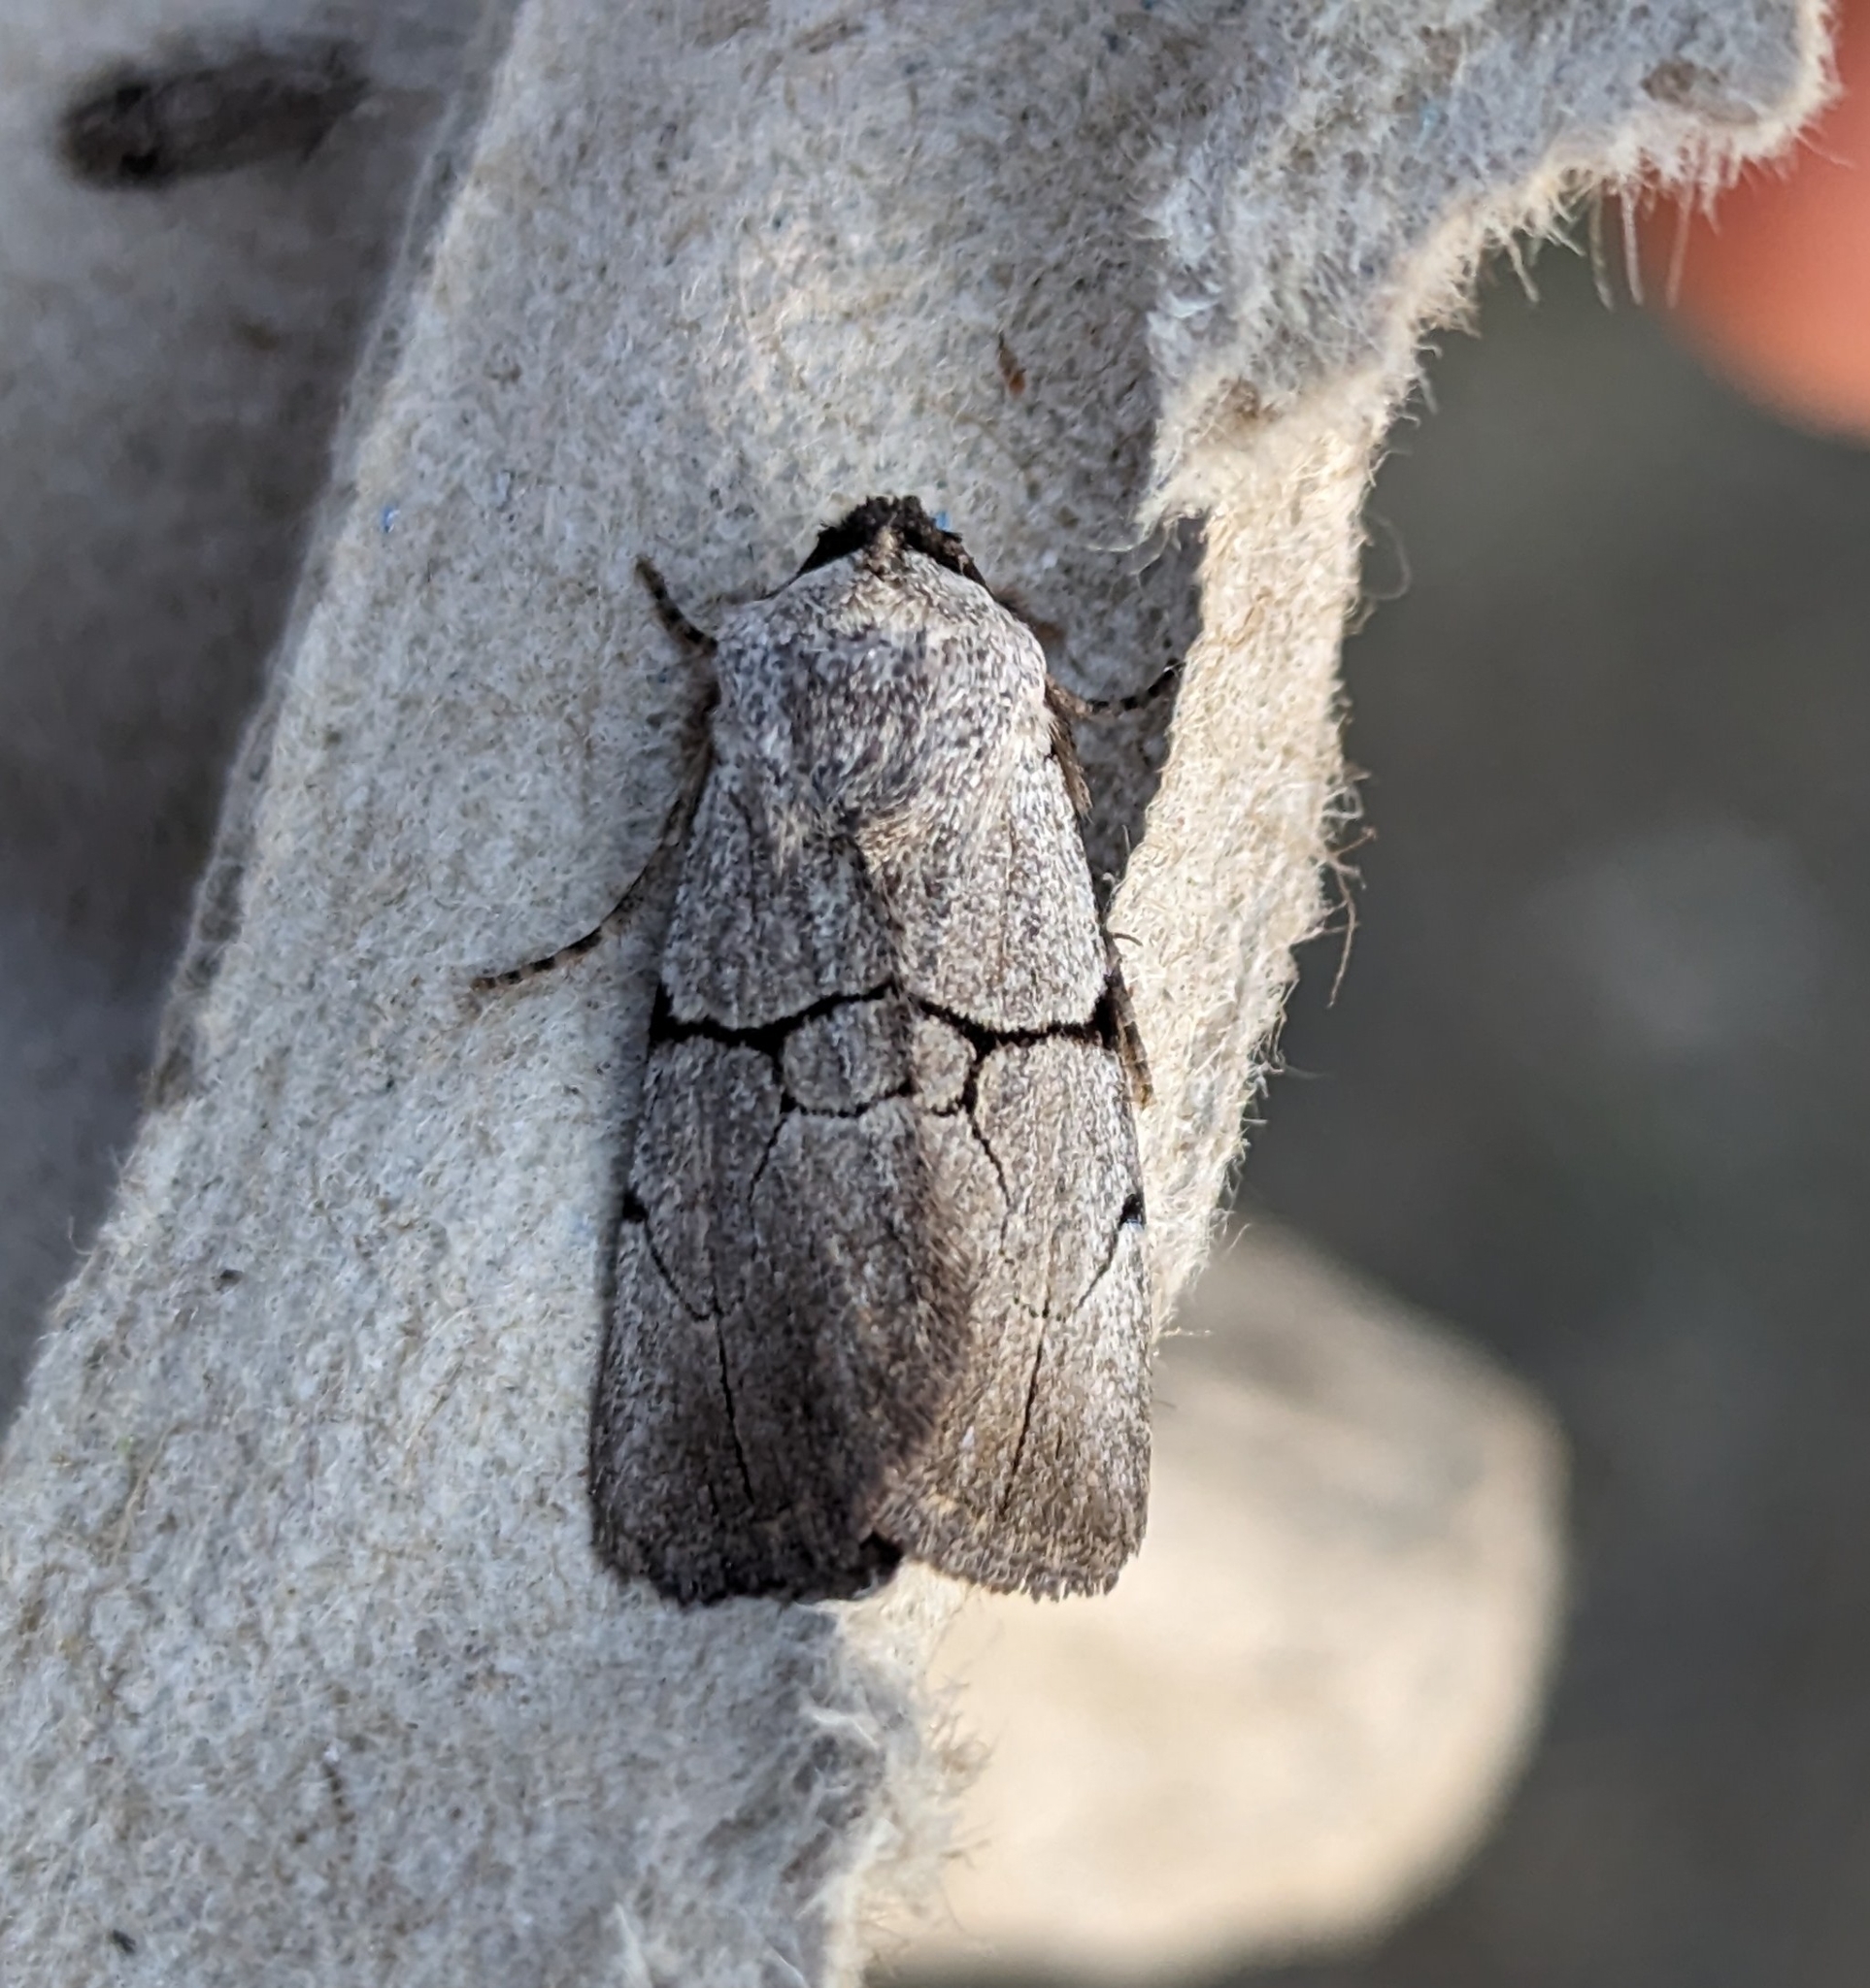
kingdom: Animalia
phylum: Arthropoda
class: Insecta
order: Lepidoptera
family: Noctuidae
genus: Sympistis
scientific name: Sympistis greyi
